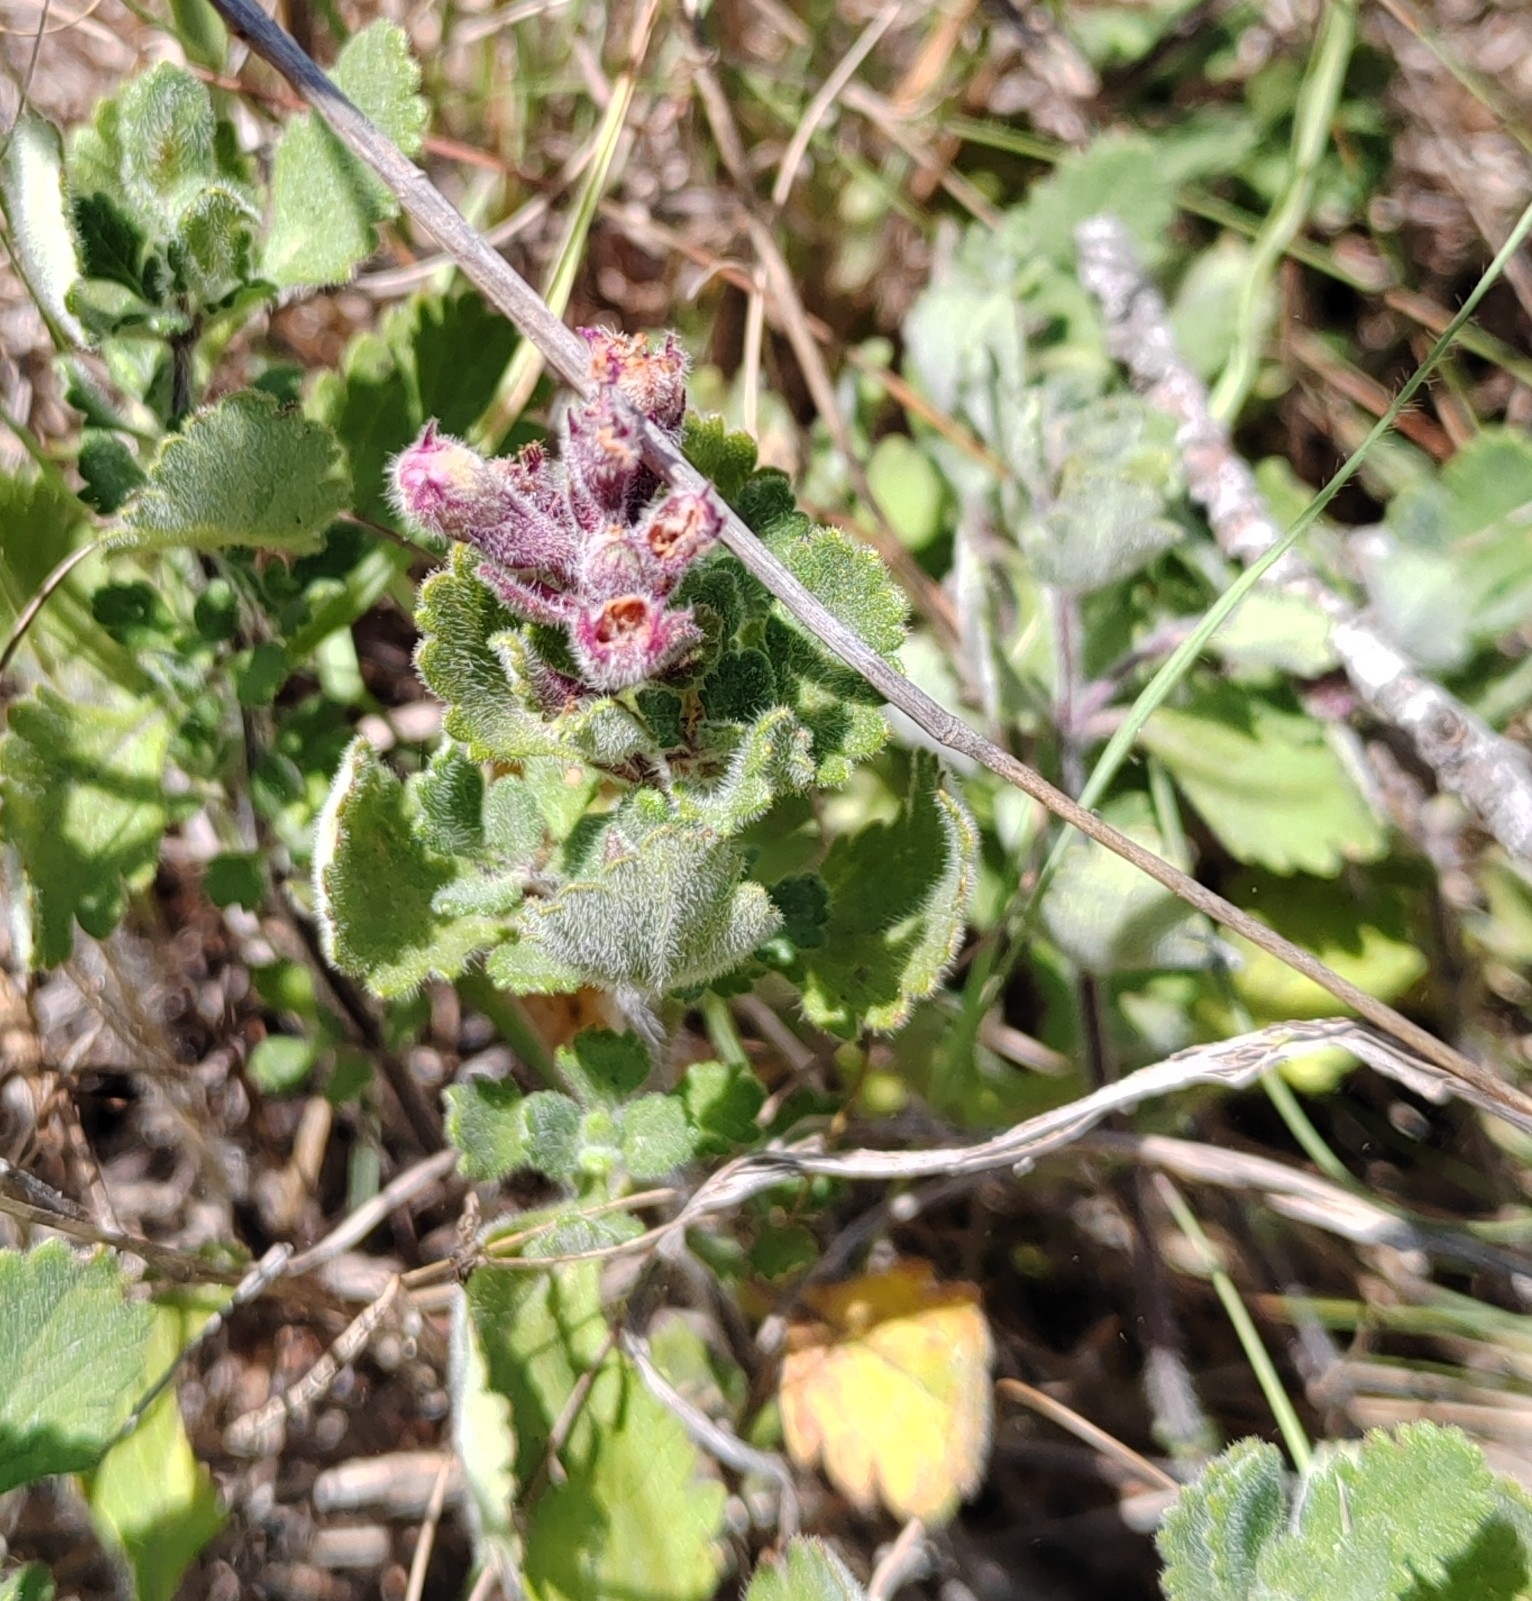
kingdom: Plantae
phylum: Tracheophyta
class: Magnoliopsida
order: Lamiales
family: Lamiaceae
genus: Teucrium
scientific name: Teucrium chamaedrys
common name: Wall germander
